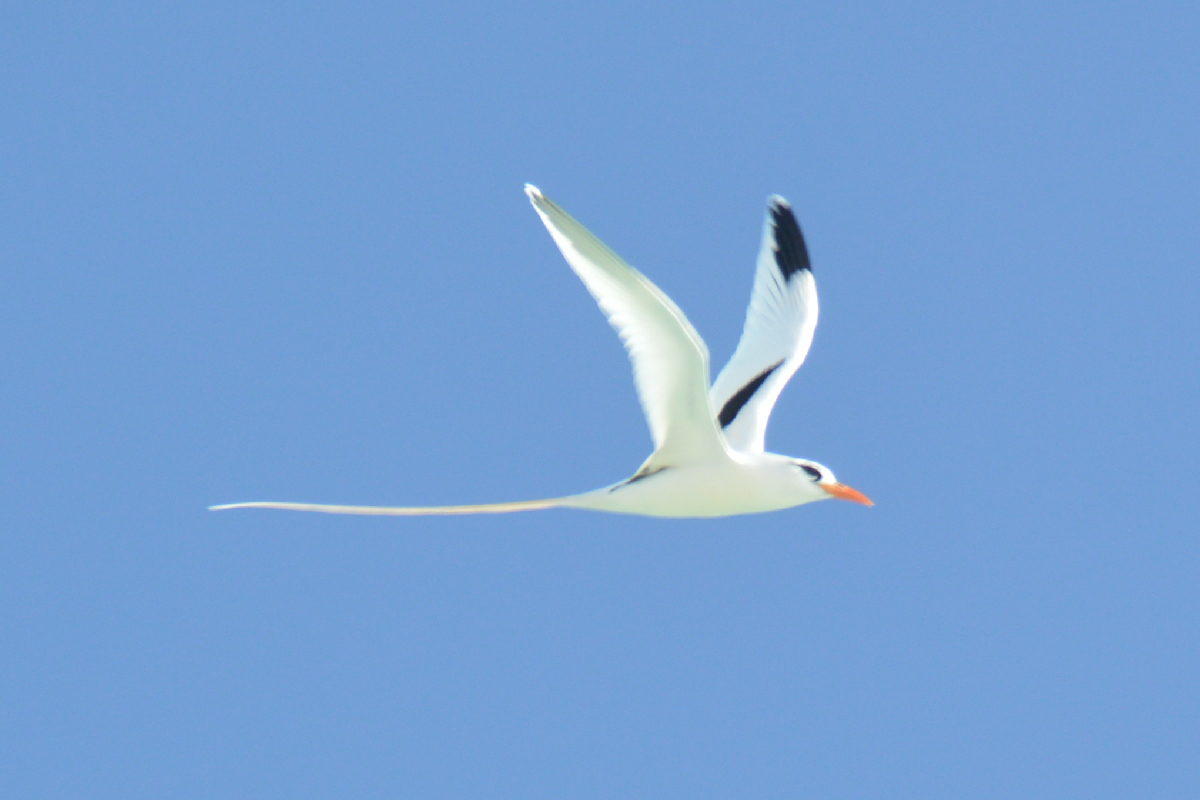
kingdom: Animalia
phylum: Chordata
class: Aves
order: Phaethontiformes
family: Phaethontidae
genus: Phaethon
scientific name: Phaethon lepturus
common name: White-tailed tropicbird
